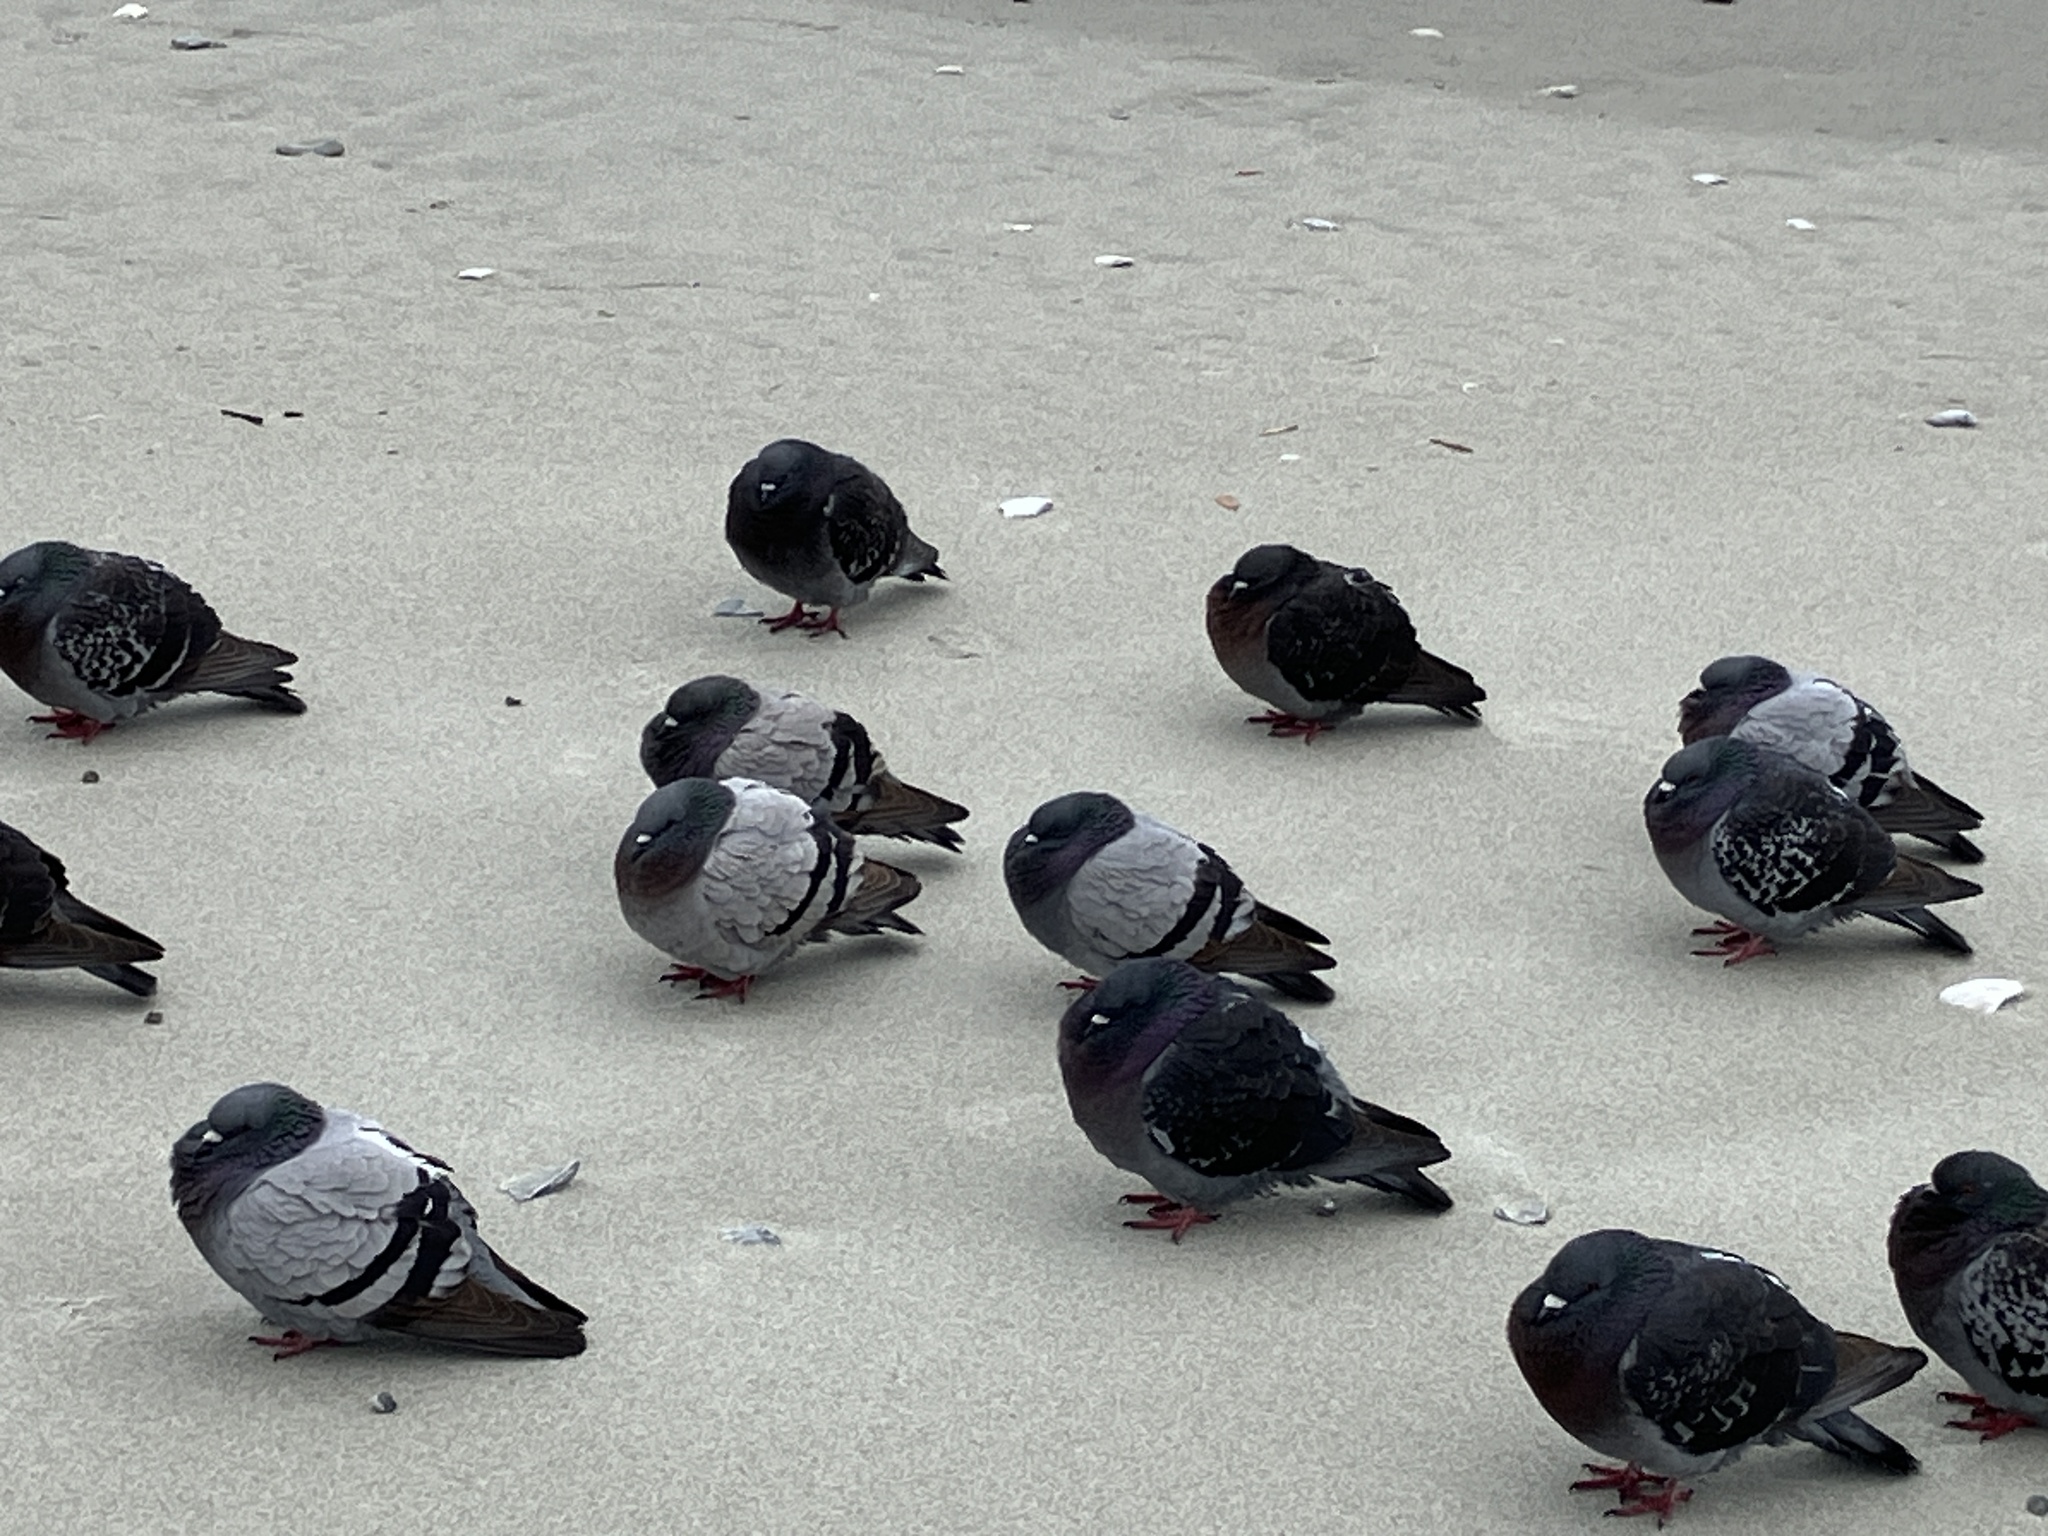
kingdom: Animalia
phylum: Chordata
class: Aves
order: Columbiformes
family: Columbidae
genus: Columba
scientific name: Columba livia
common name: Rock pigeon
